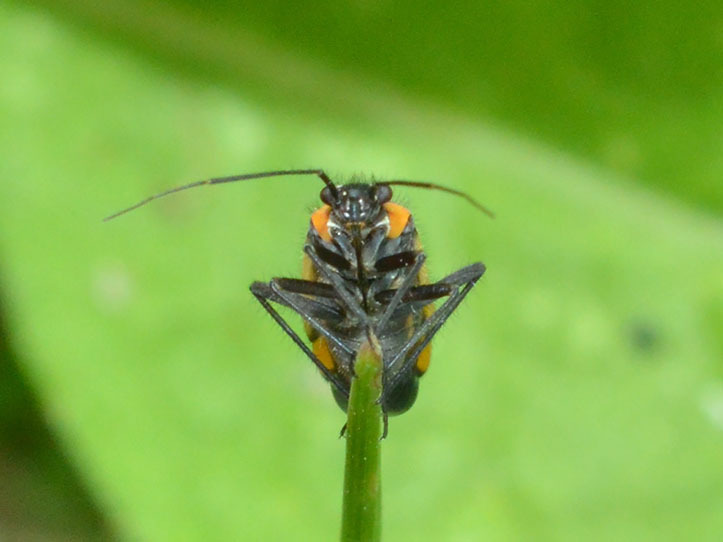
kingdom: Animalia
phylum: Arthropoda
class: Insecta
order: Hemiptera
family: Miridae
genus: Capsodes
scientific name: Capsodes gothicus
